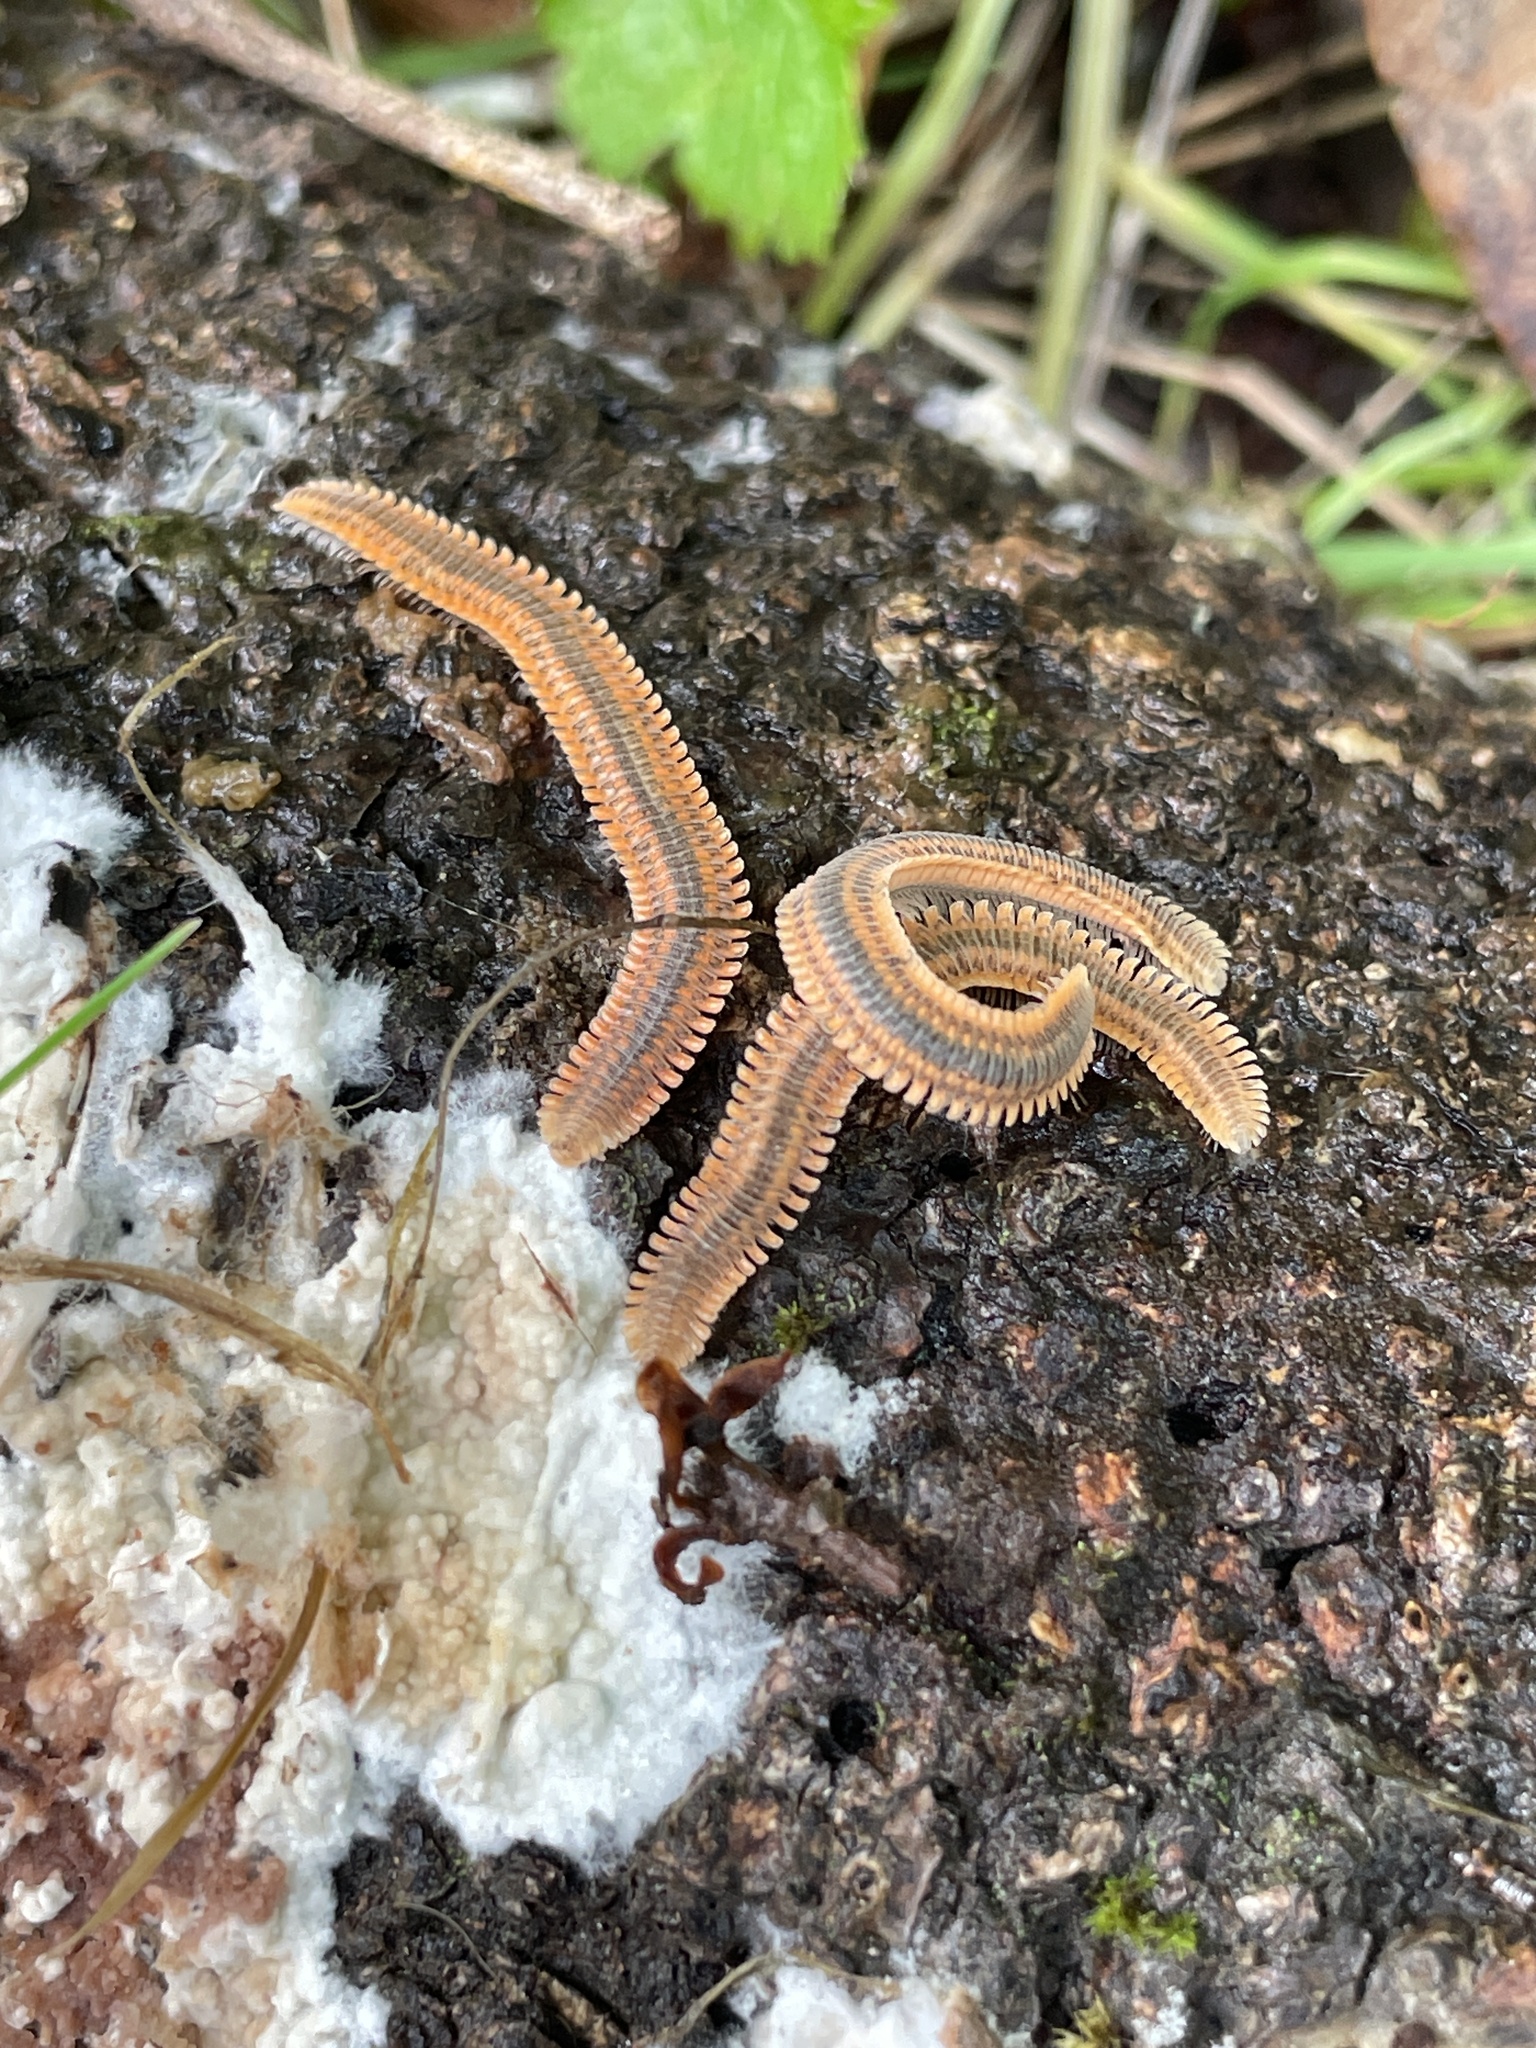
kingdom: Animalia
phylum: Arthropoda
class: Diplopoda
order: Platydesmida
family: Andrognathidae
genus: Brachycybe
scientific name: Brachycybe producta
